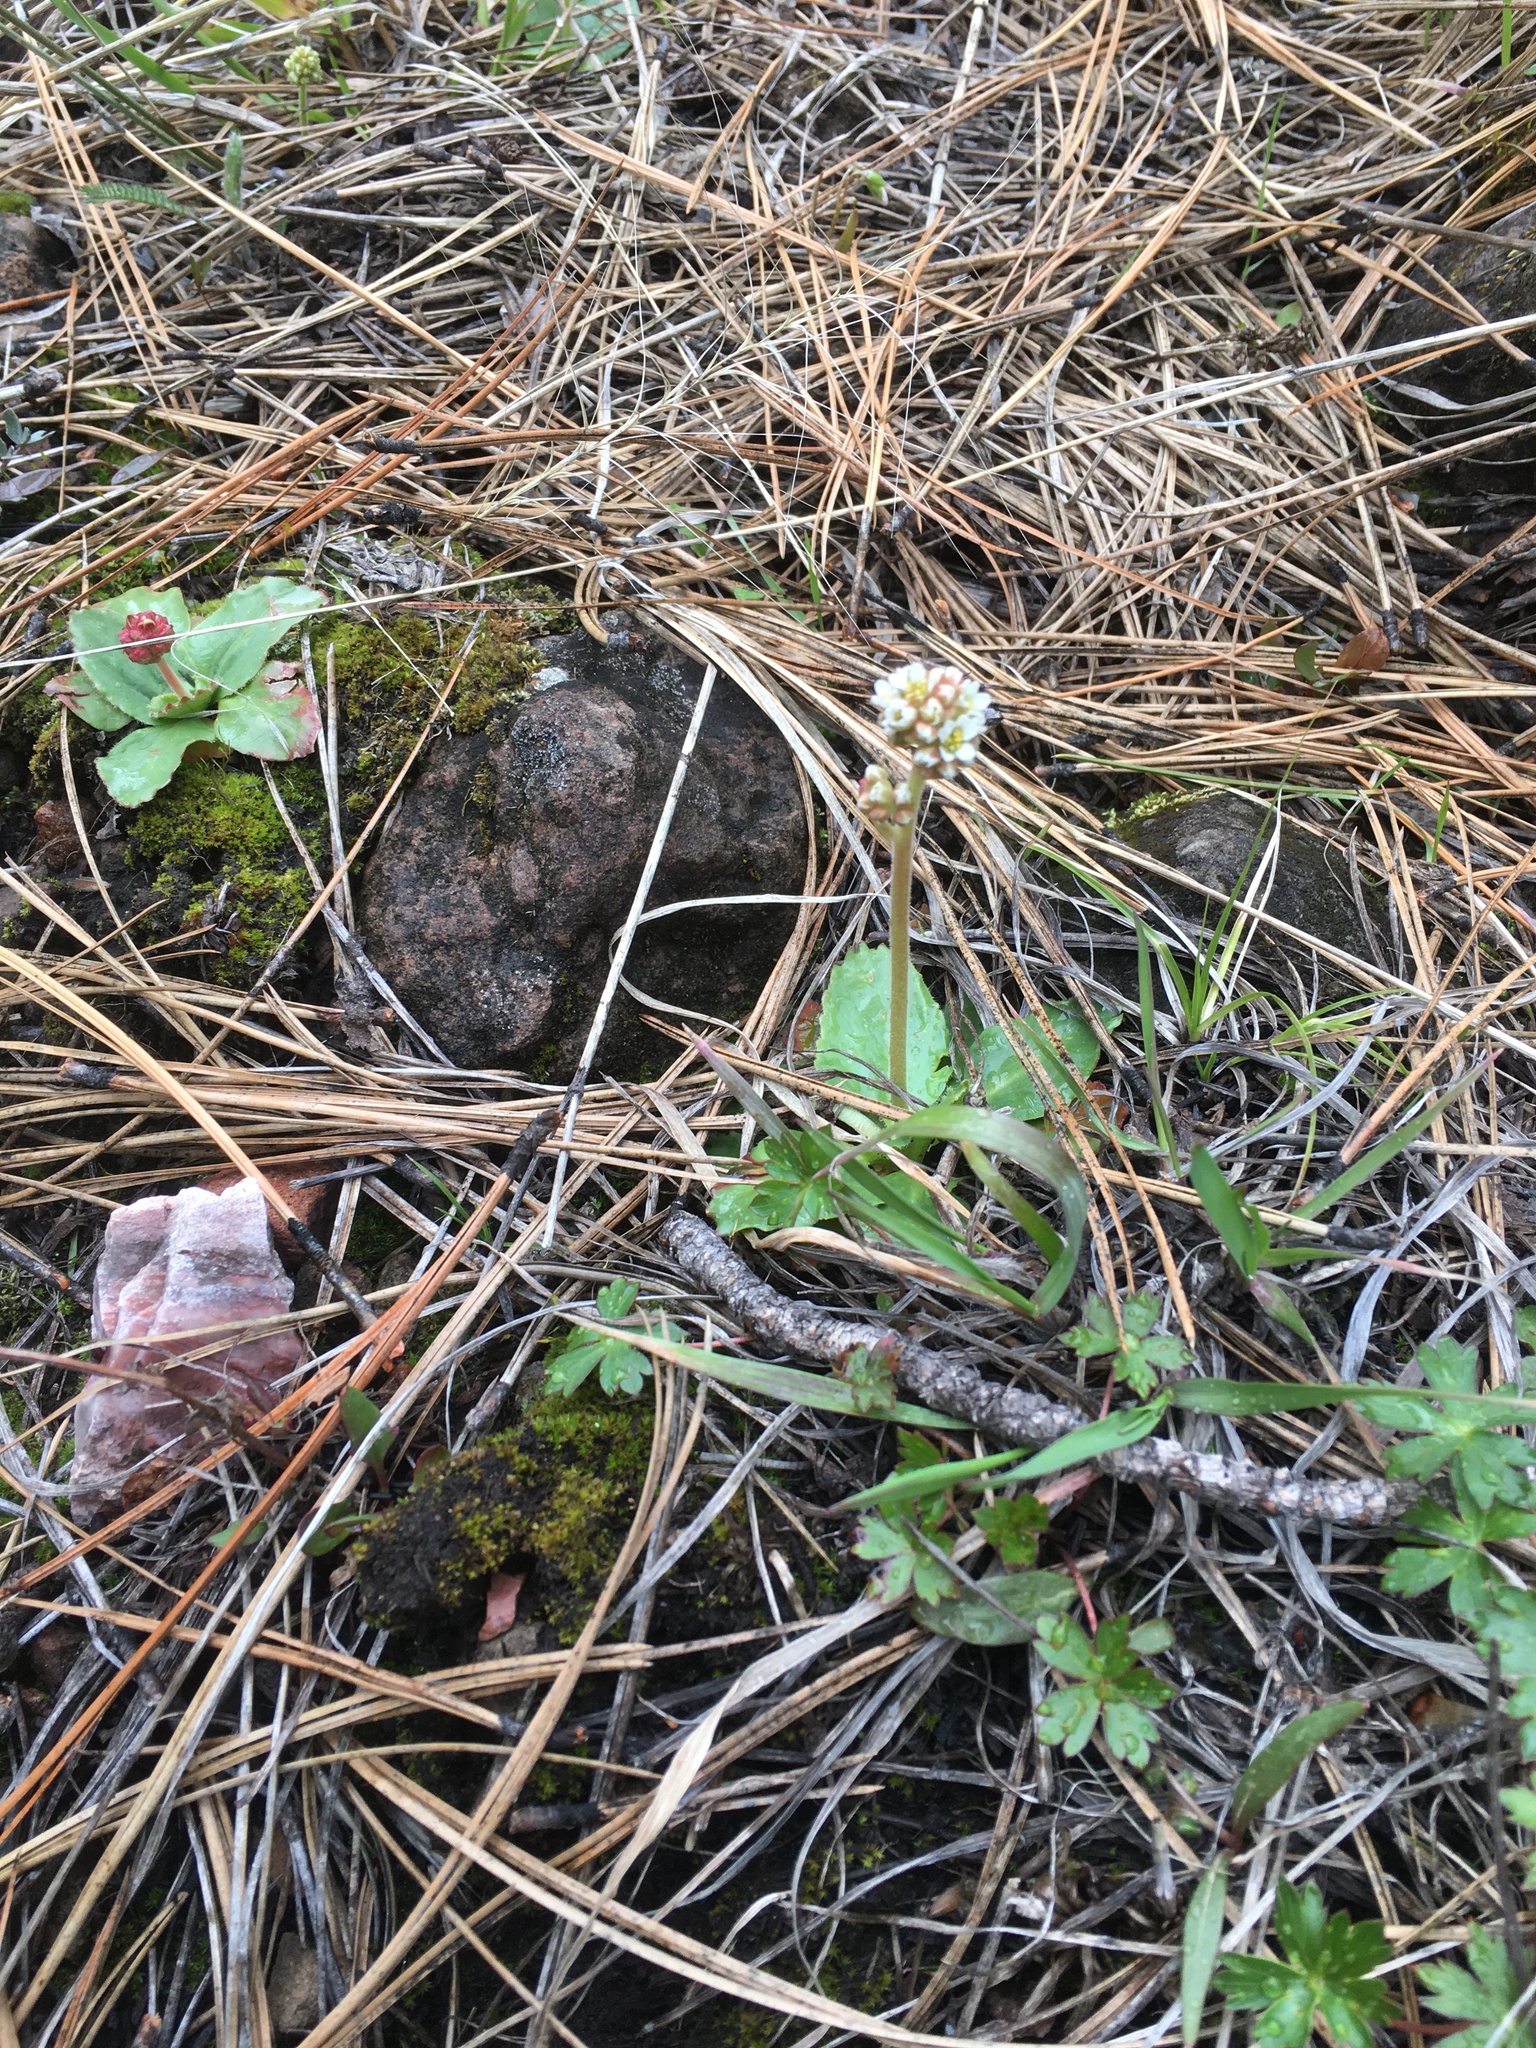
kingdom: Plantae
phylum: Tracheophyta
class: Magnoliopsida
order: Saxifragales
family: Saxifragaceae
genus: Micranthes
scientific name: Micranthes rhomboidea
